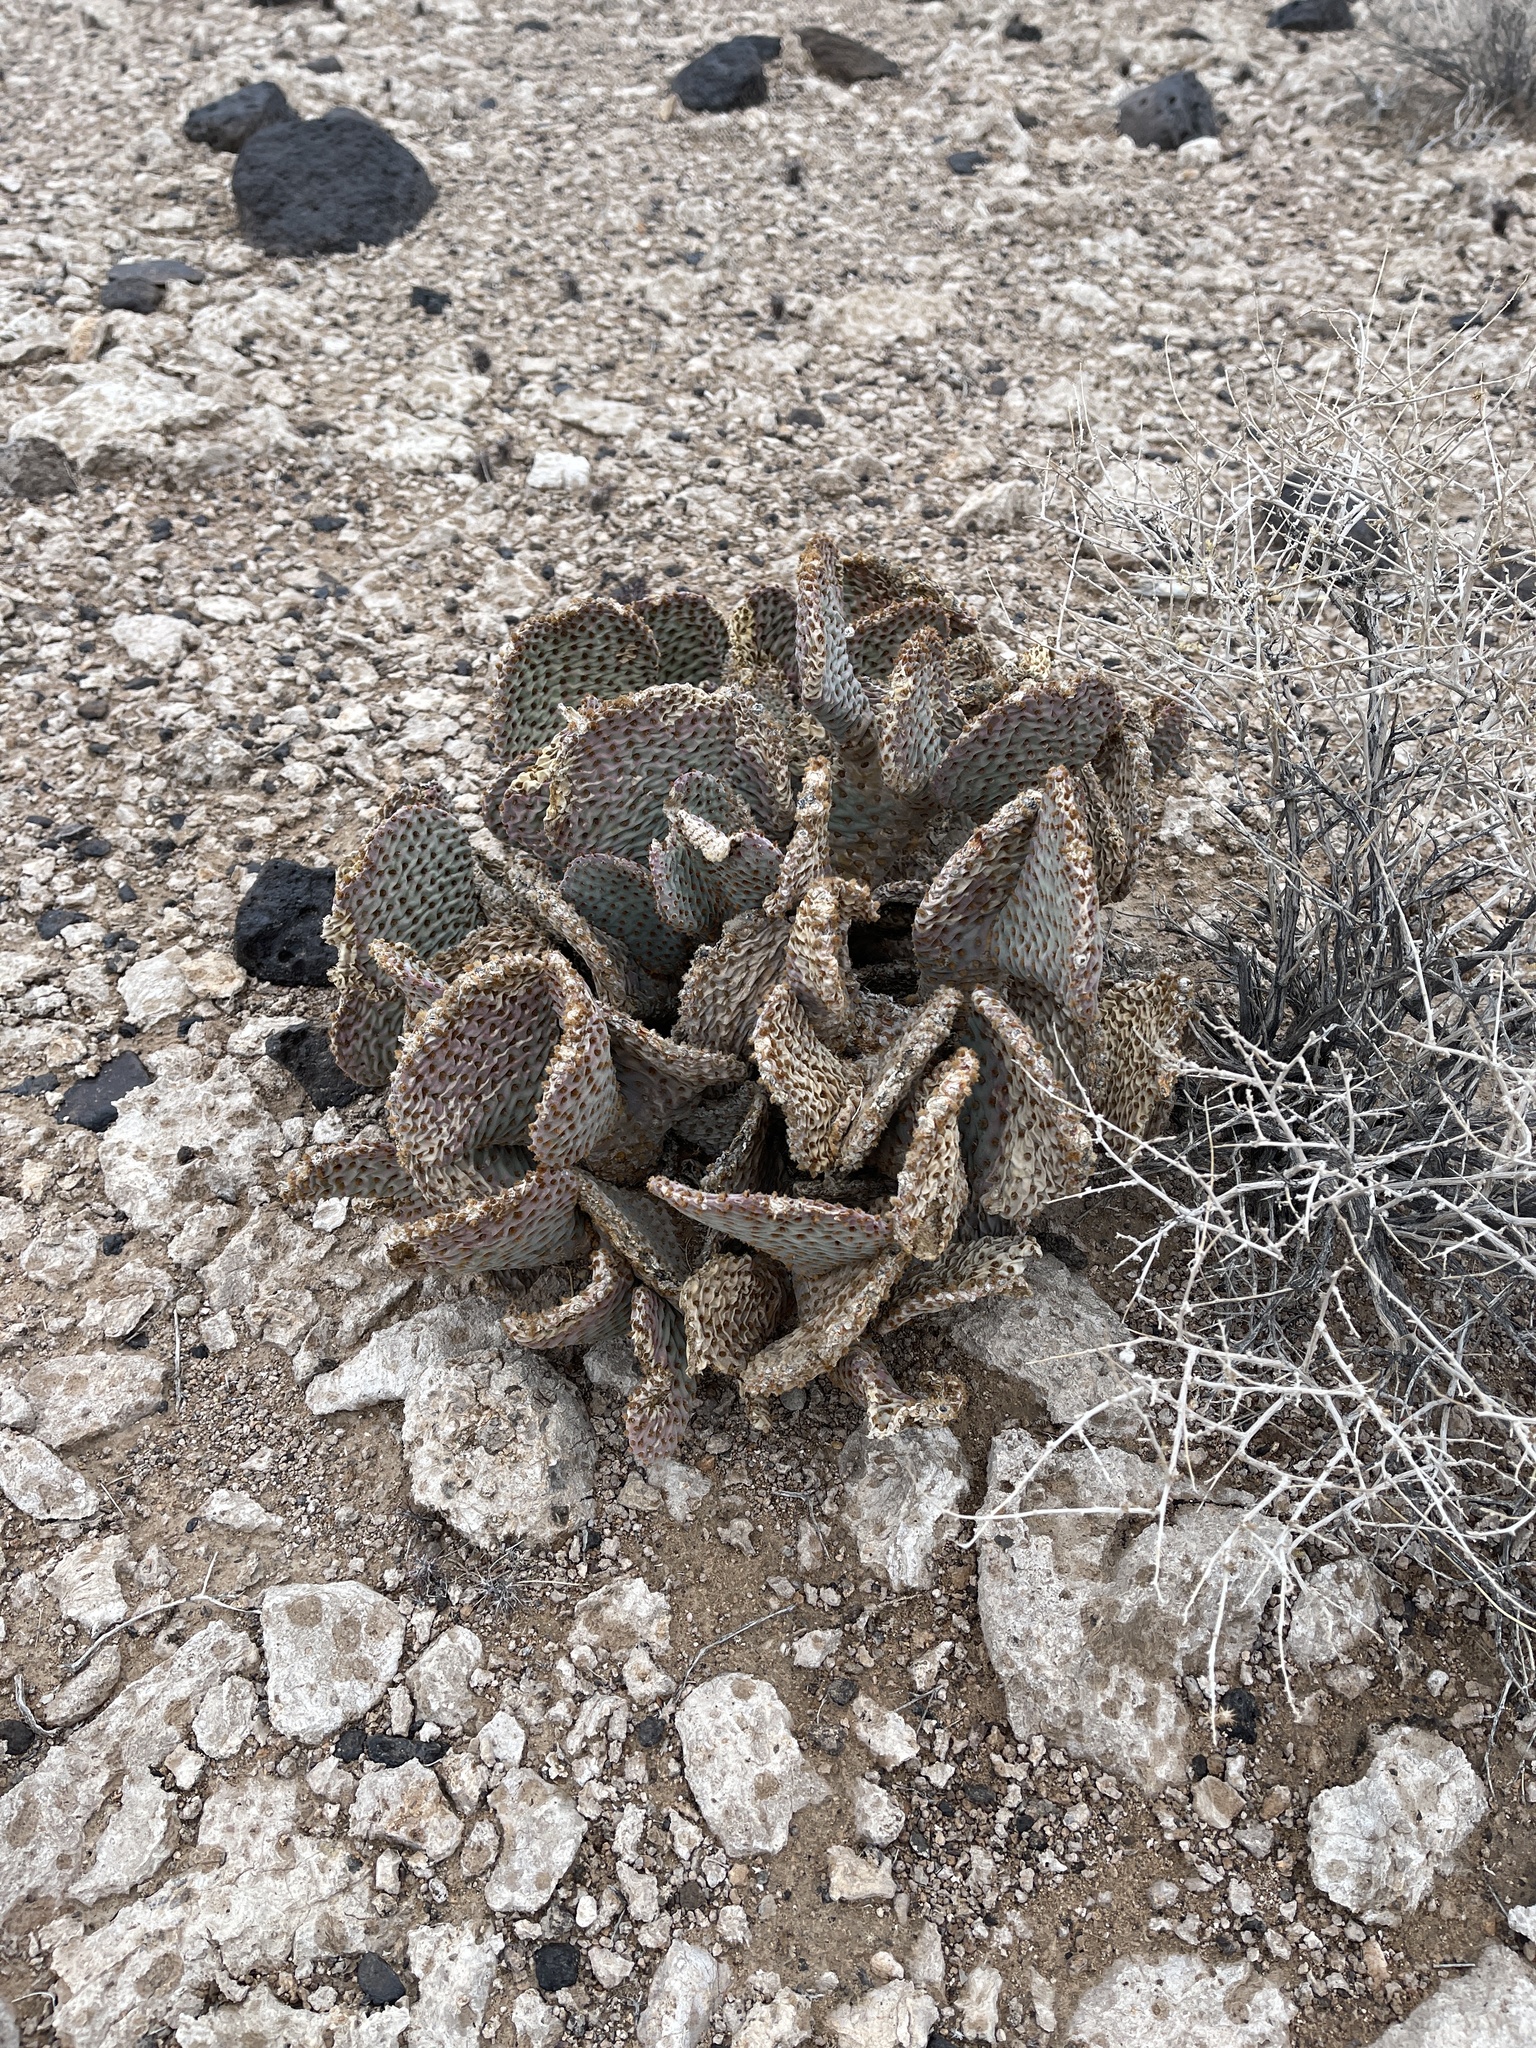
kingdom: Plantae
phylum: Tracheophyta
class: Magnoliopsida
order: Caryophyllales
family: Cactaceae
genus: Opuntia
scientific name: Opuntia basilaris
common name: Beavertail prickly-pear
